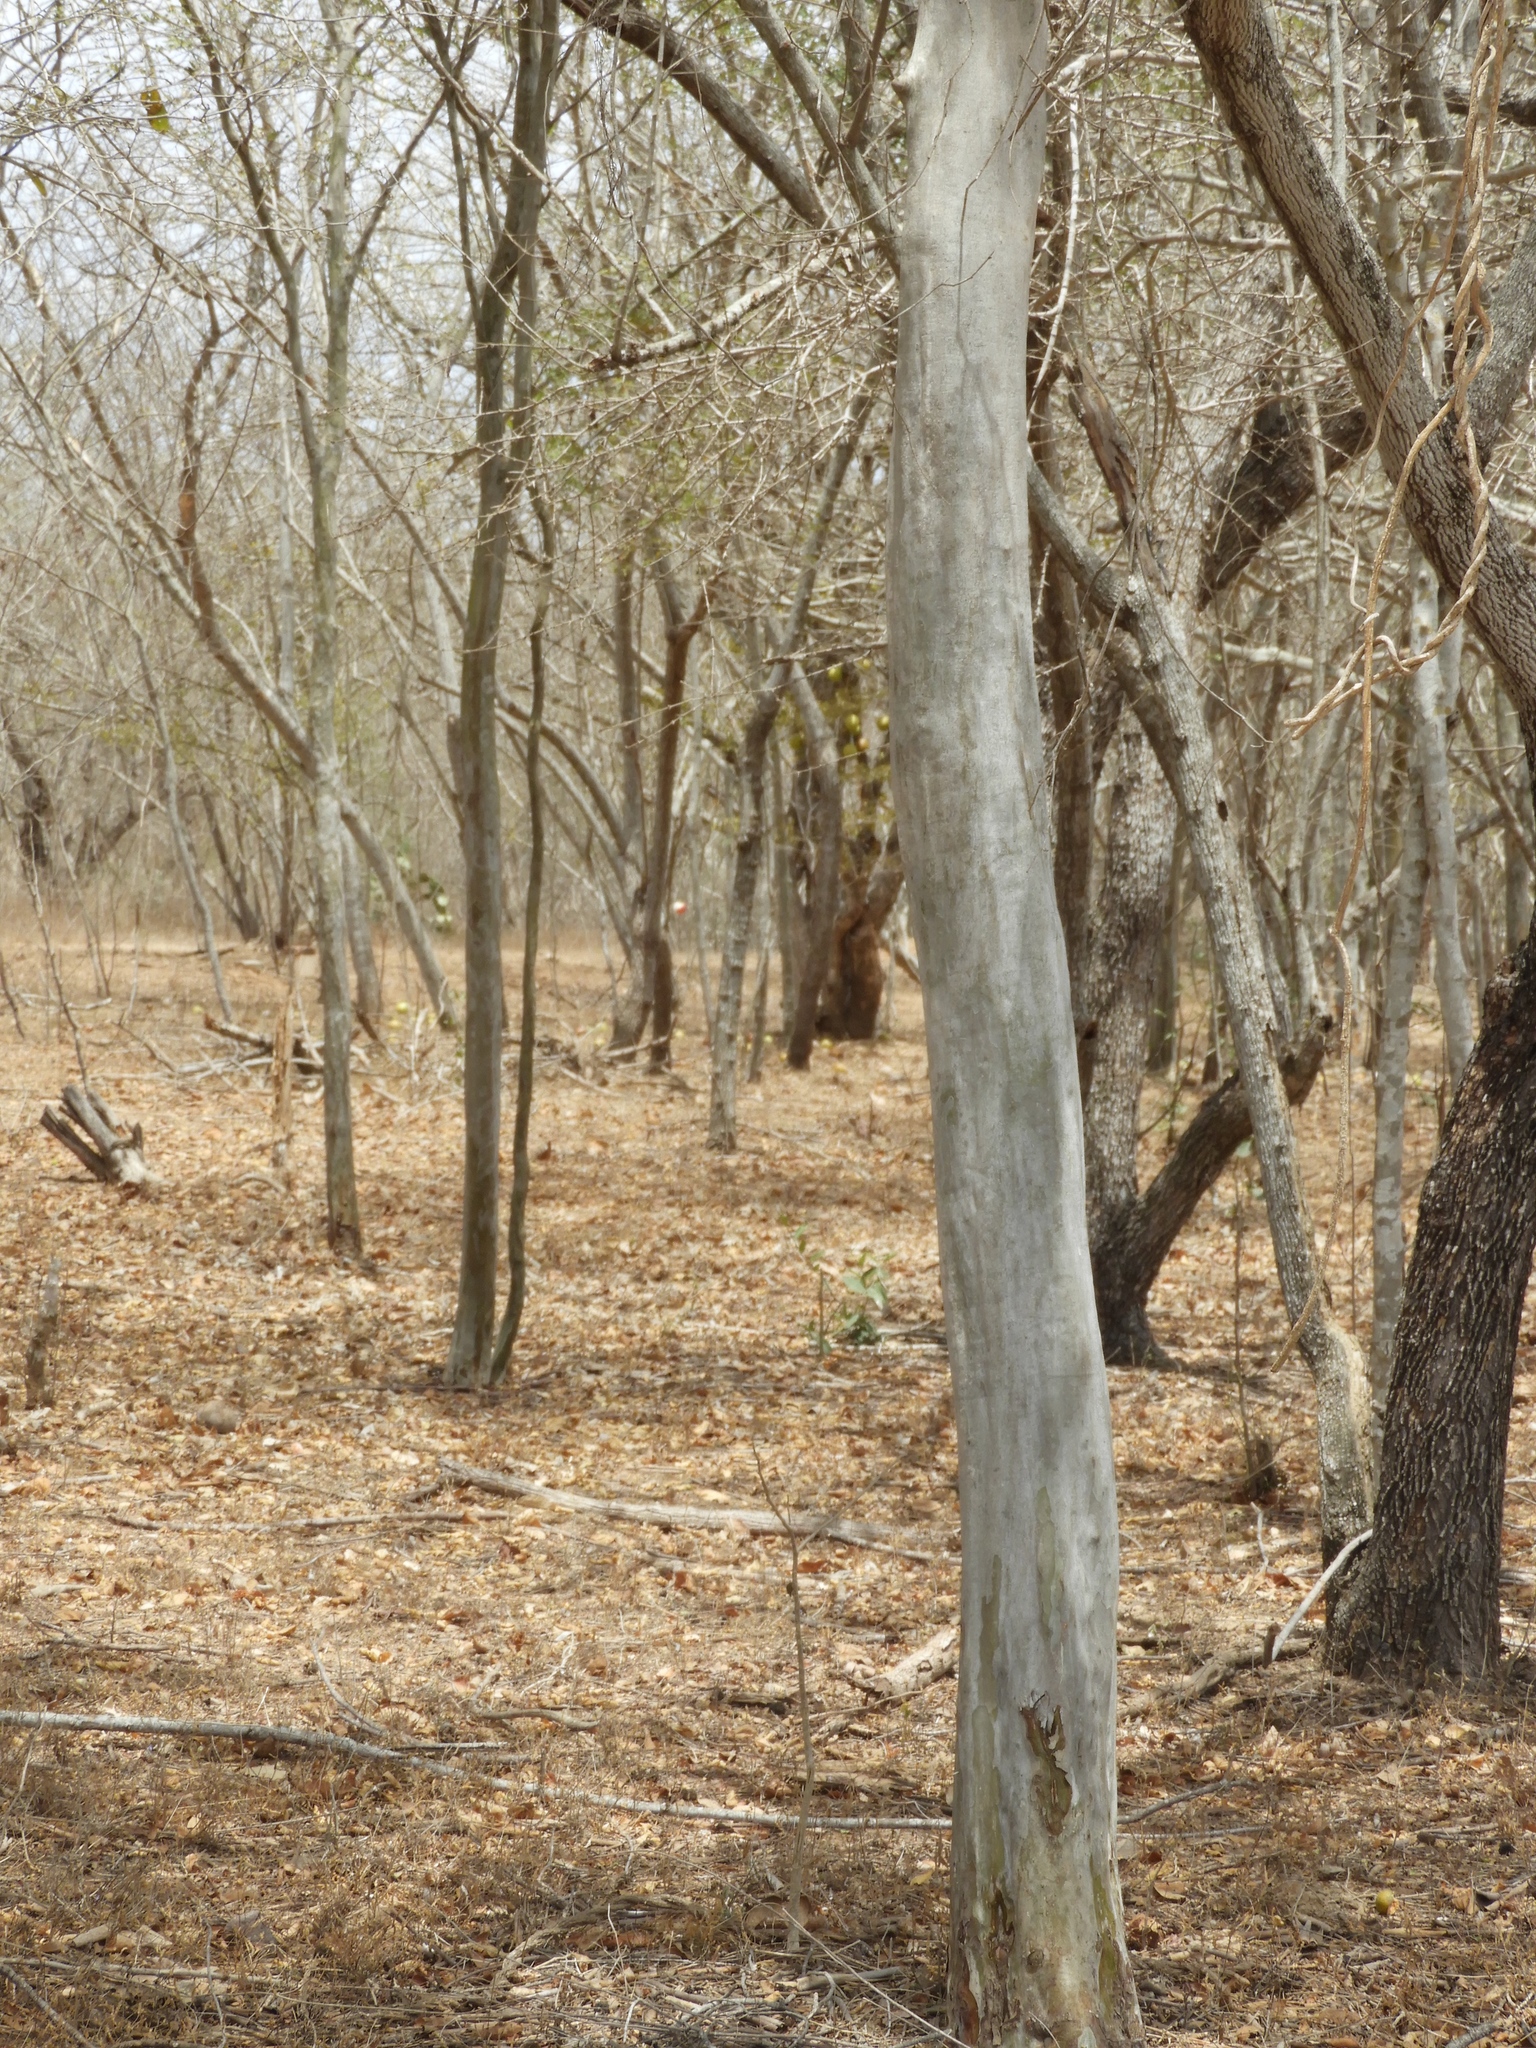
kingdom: Plantae
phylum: Tracheophyta
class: Magnoliopsida
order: Fabales
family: Fabaceae
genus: Libidibia
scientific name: Libidibia sclerocarpa
